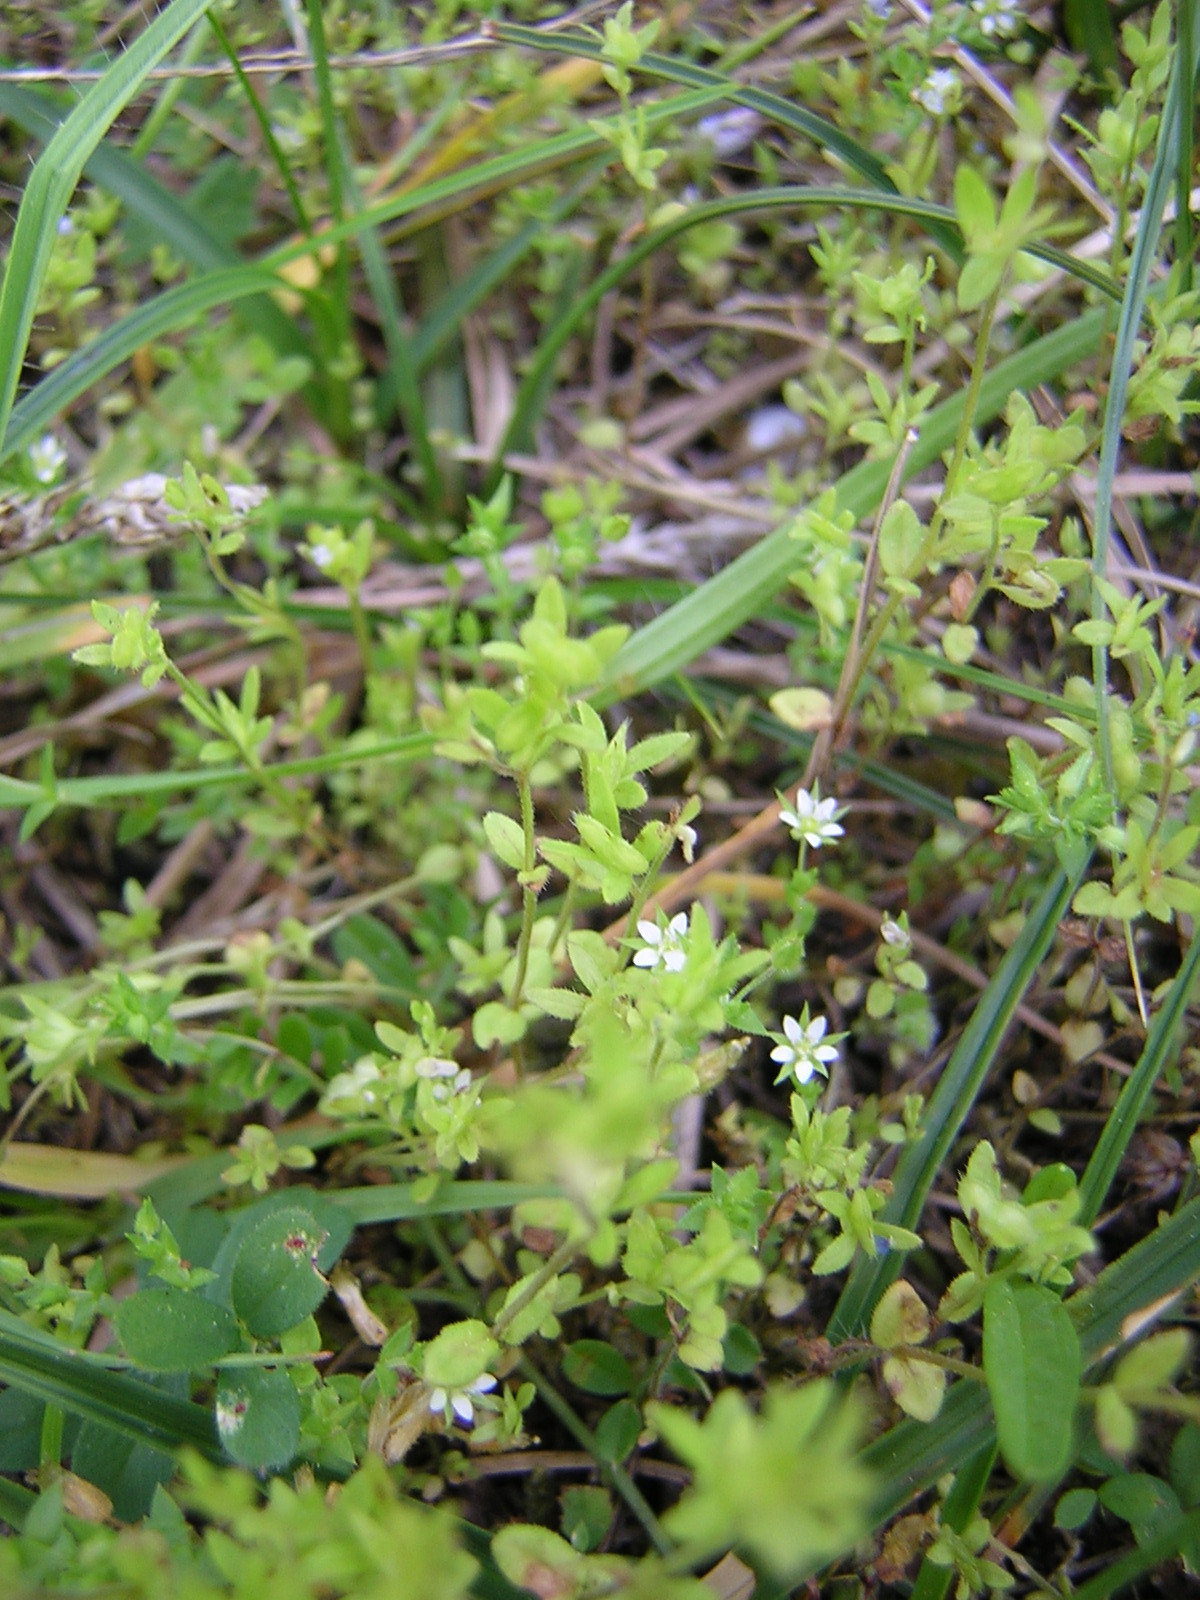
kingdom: Plantae
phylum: Tracheophyta
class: Magnoliopsida
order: Caryophyllales
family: Caryophyllaceae
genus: Arenaria
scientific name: Arenaria serpyllifolia
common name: Thyme-leaved sandwort
